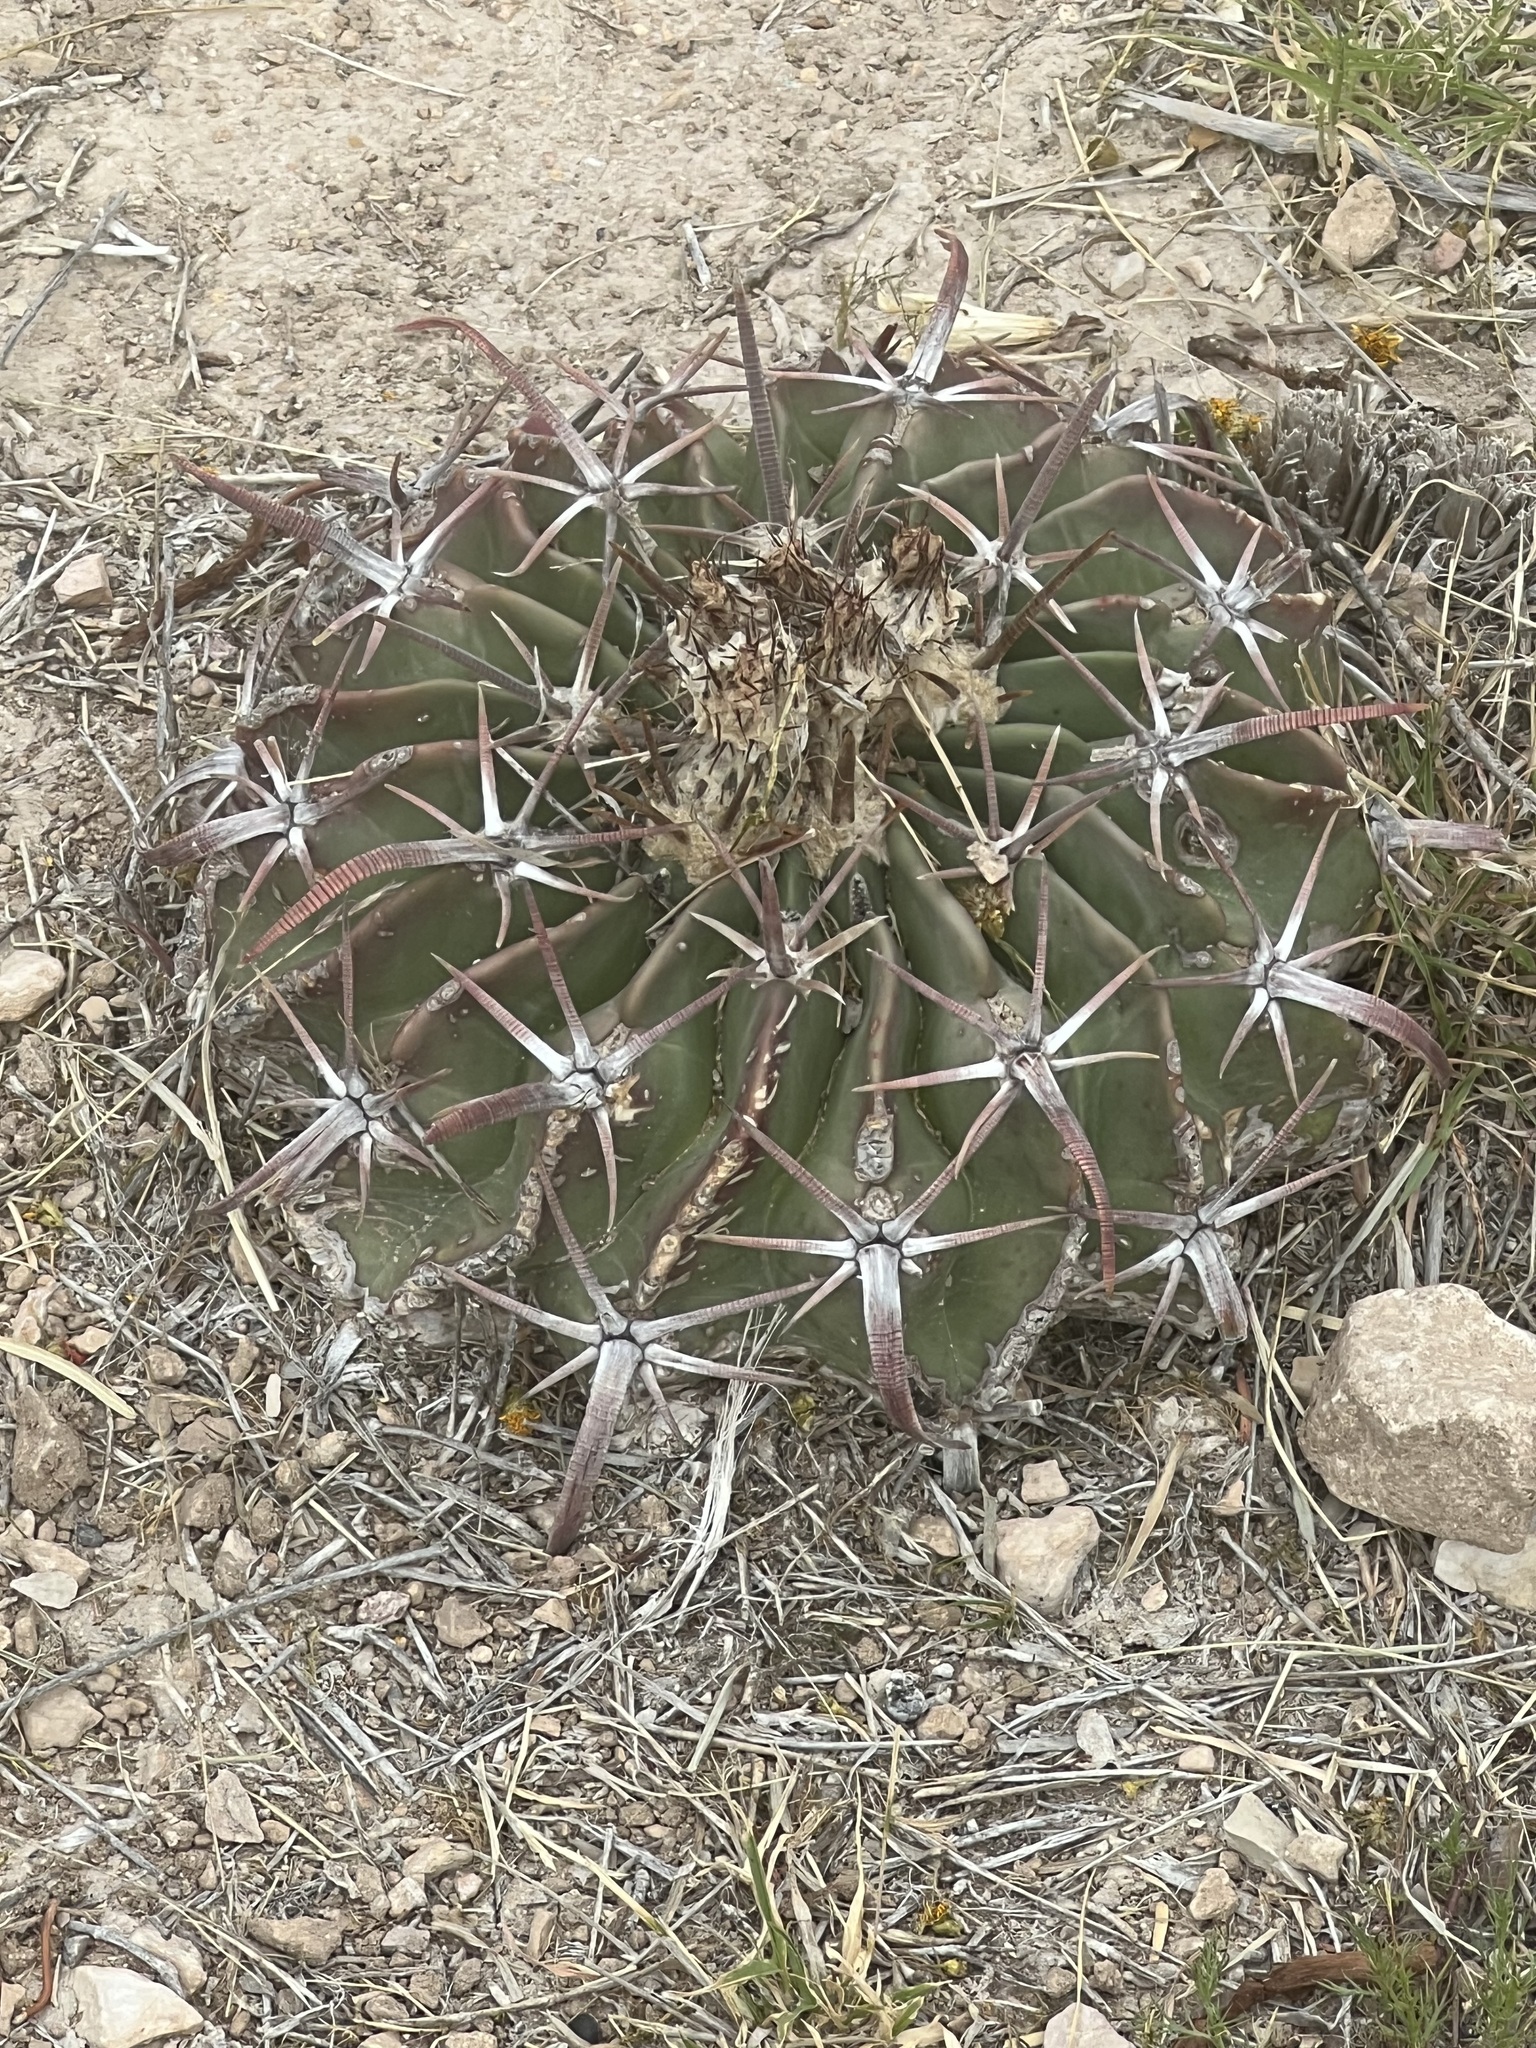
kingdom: Plantae
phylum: Tracheophyta
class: Magnoliopsida
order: Caryophyllales
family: Cactaceae
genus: Echinocactus
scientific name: Echinocactus texensis
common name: Devil's pincushion
